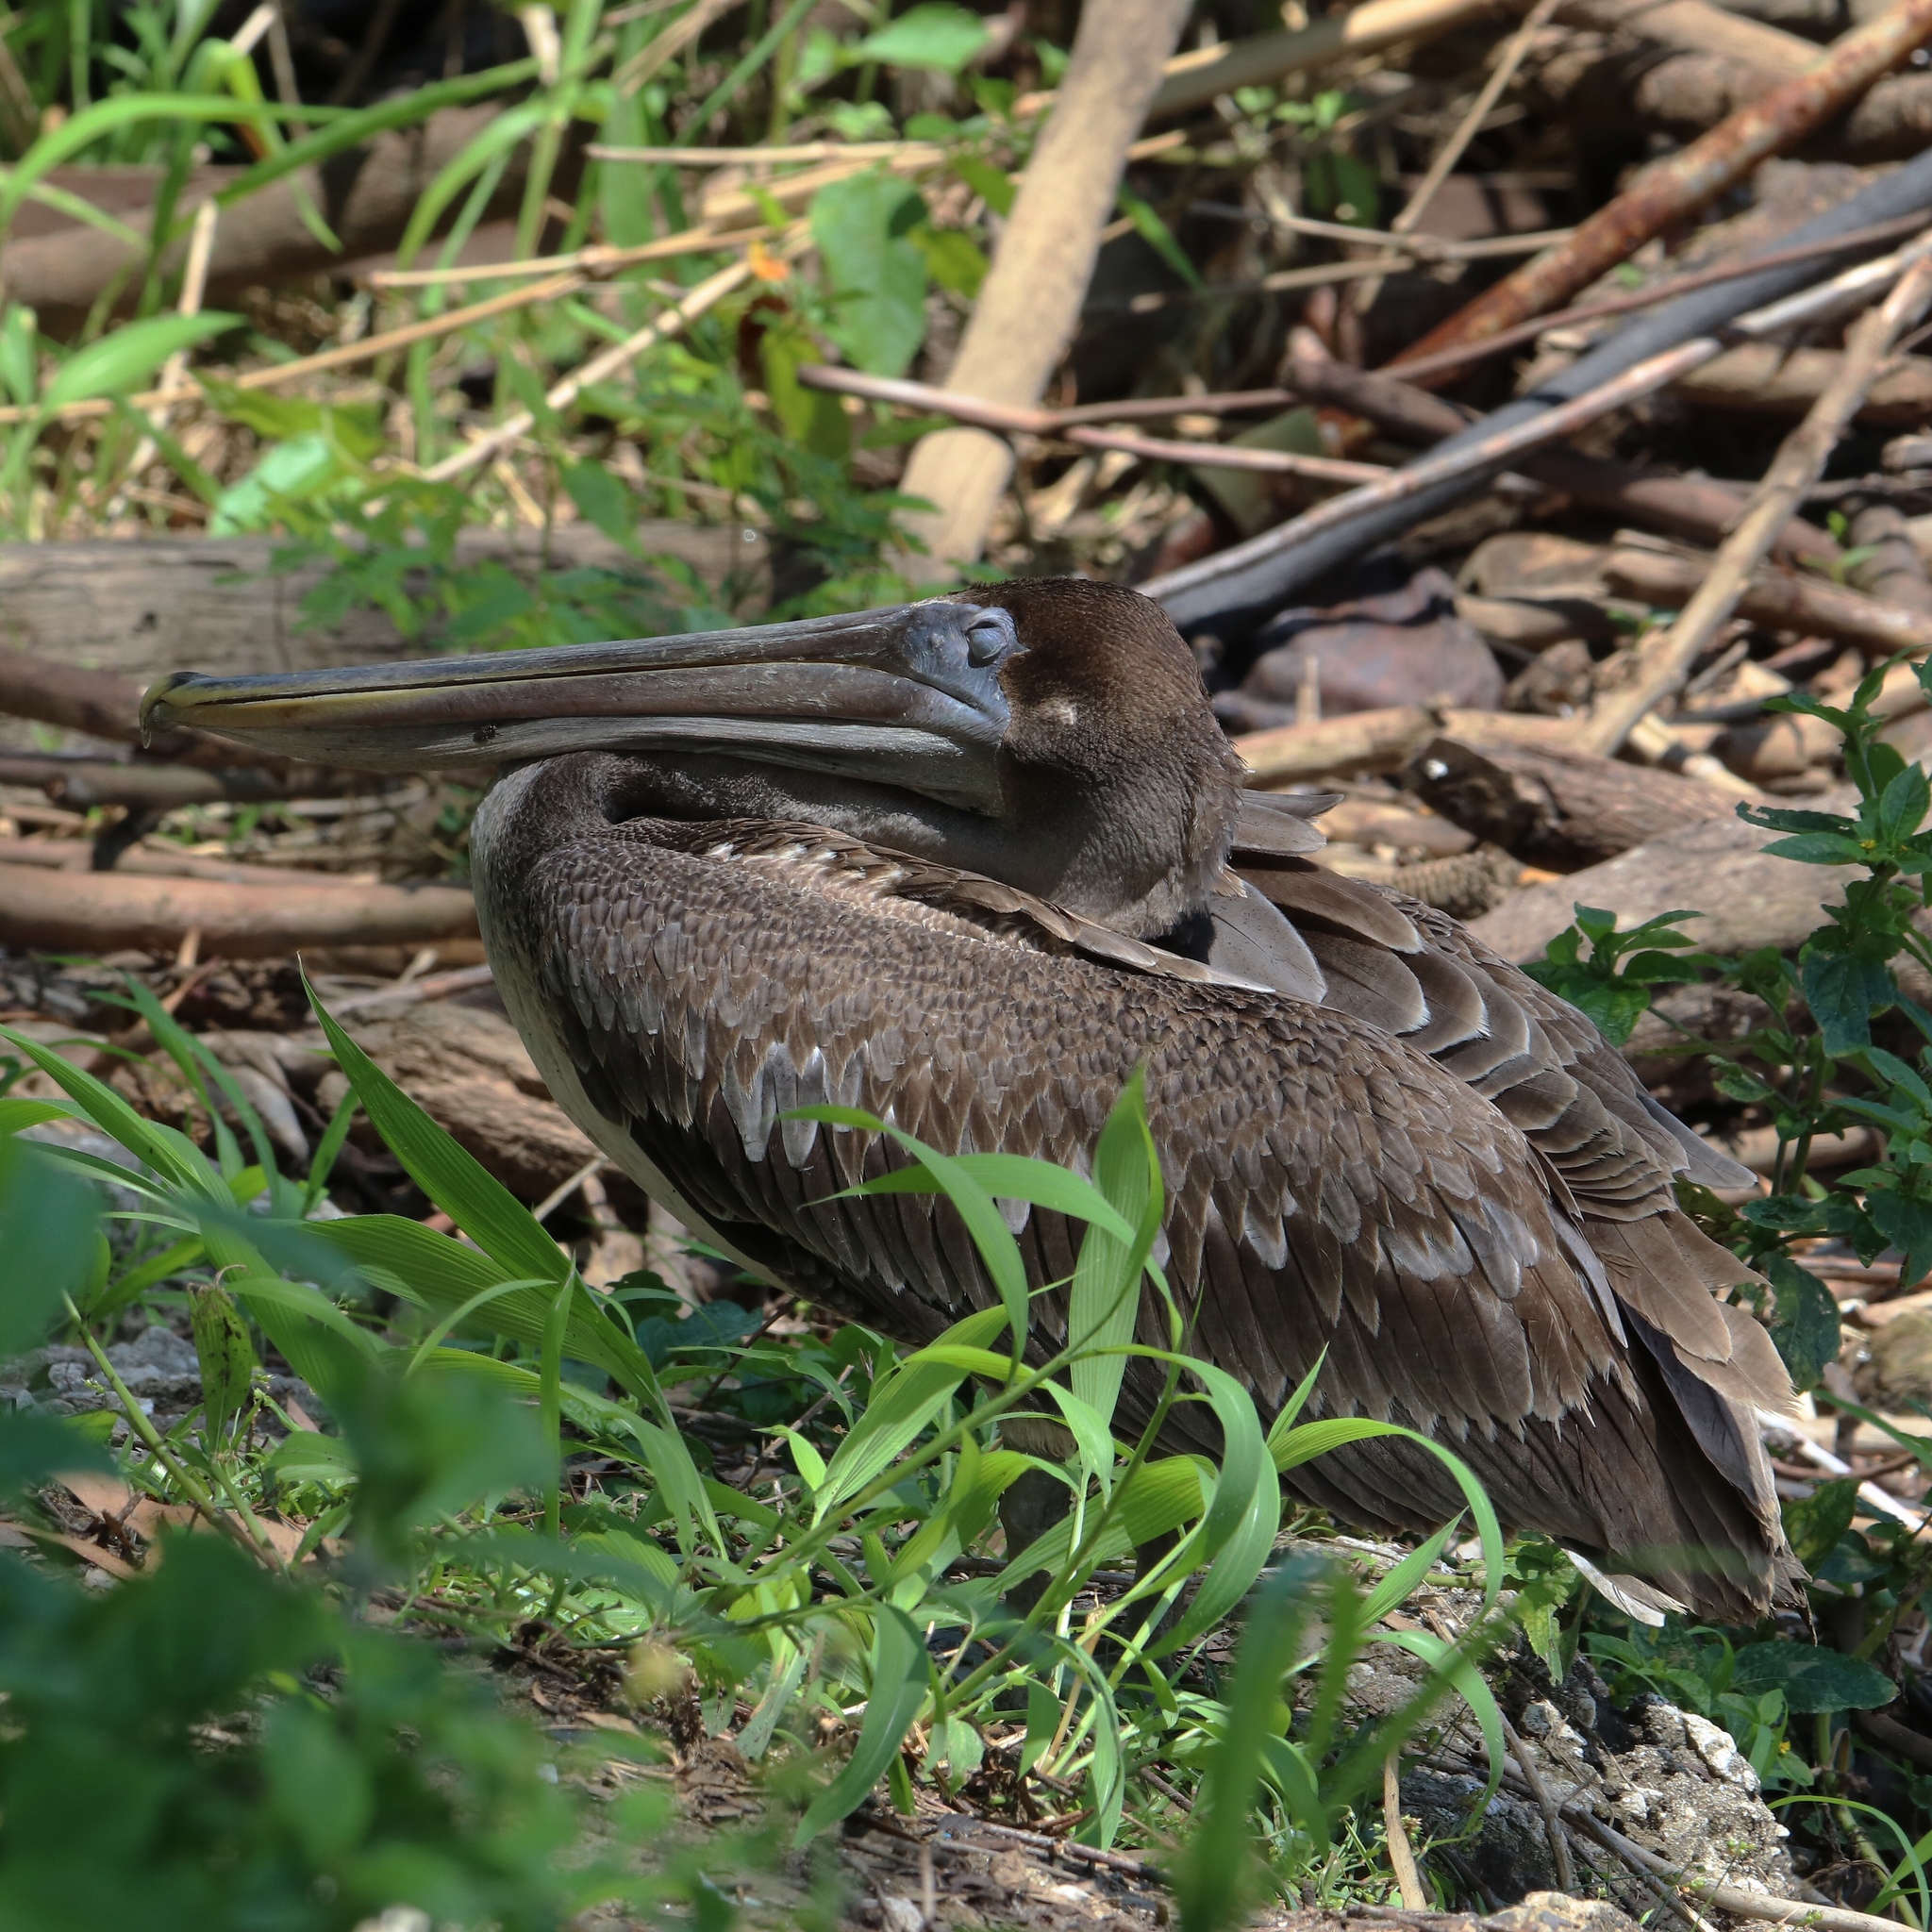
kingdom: Animalia
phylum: Chordata
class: Aves
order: Pelecaniformes
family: Pelecanidae
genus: Pelecanus
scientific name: Pelecanus occidentalis
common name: Brown pelican
